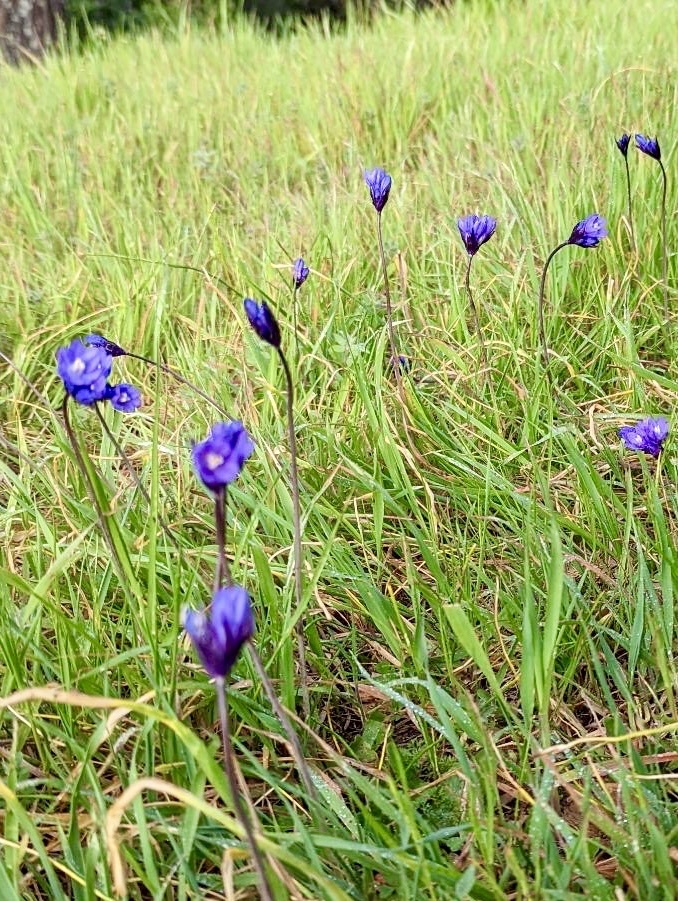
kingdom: Plantae
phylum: Tracheophyta
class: Liliopsida
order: Asparagales
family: Asparagaceae
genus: Dipterostemon
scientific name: Dipterostemon capitatus
